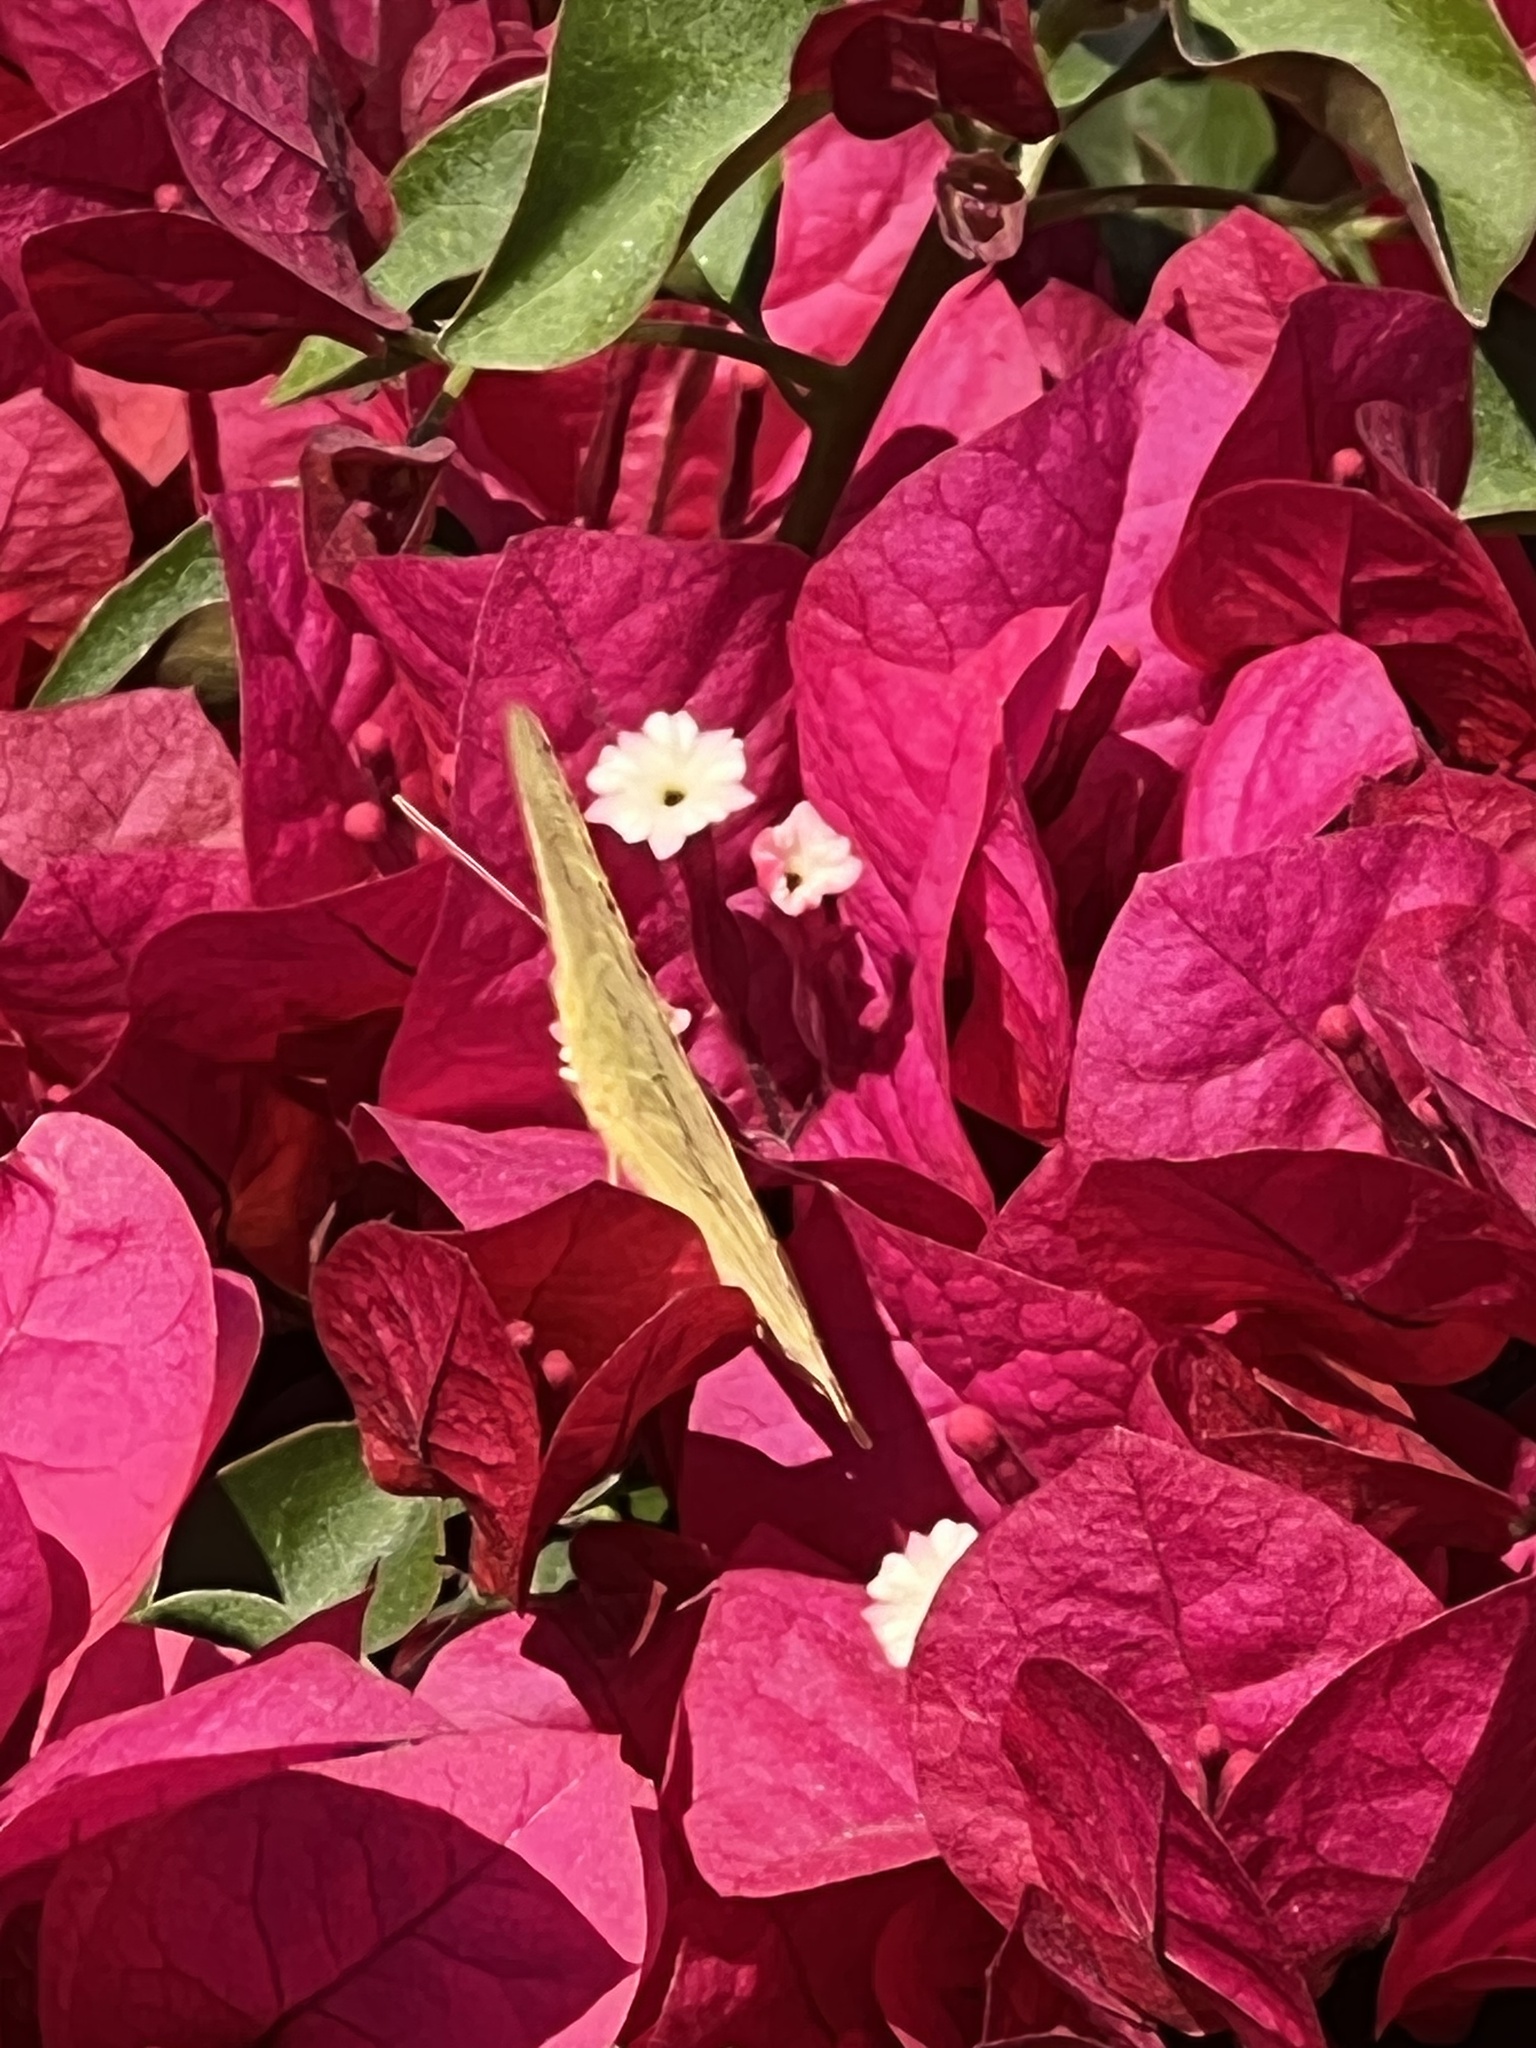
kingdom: Animalia
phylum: Arthropoda
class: Insecta
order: Lepidoptera
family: Pieridae
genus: Phoebis
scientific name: Phoebis agarithe
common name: Large orange sulphur
